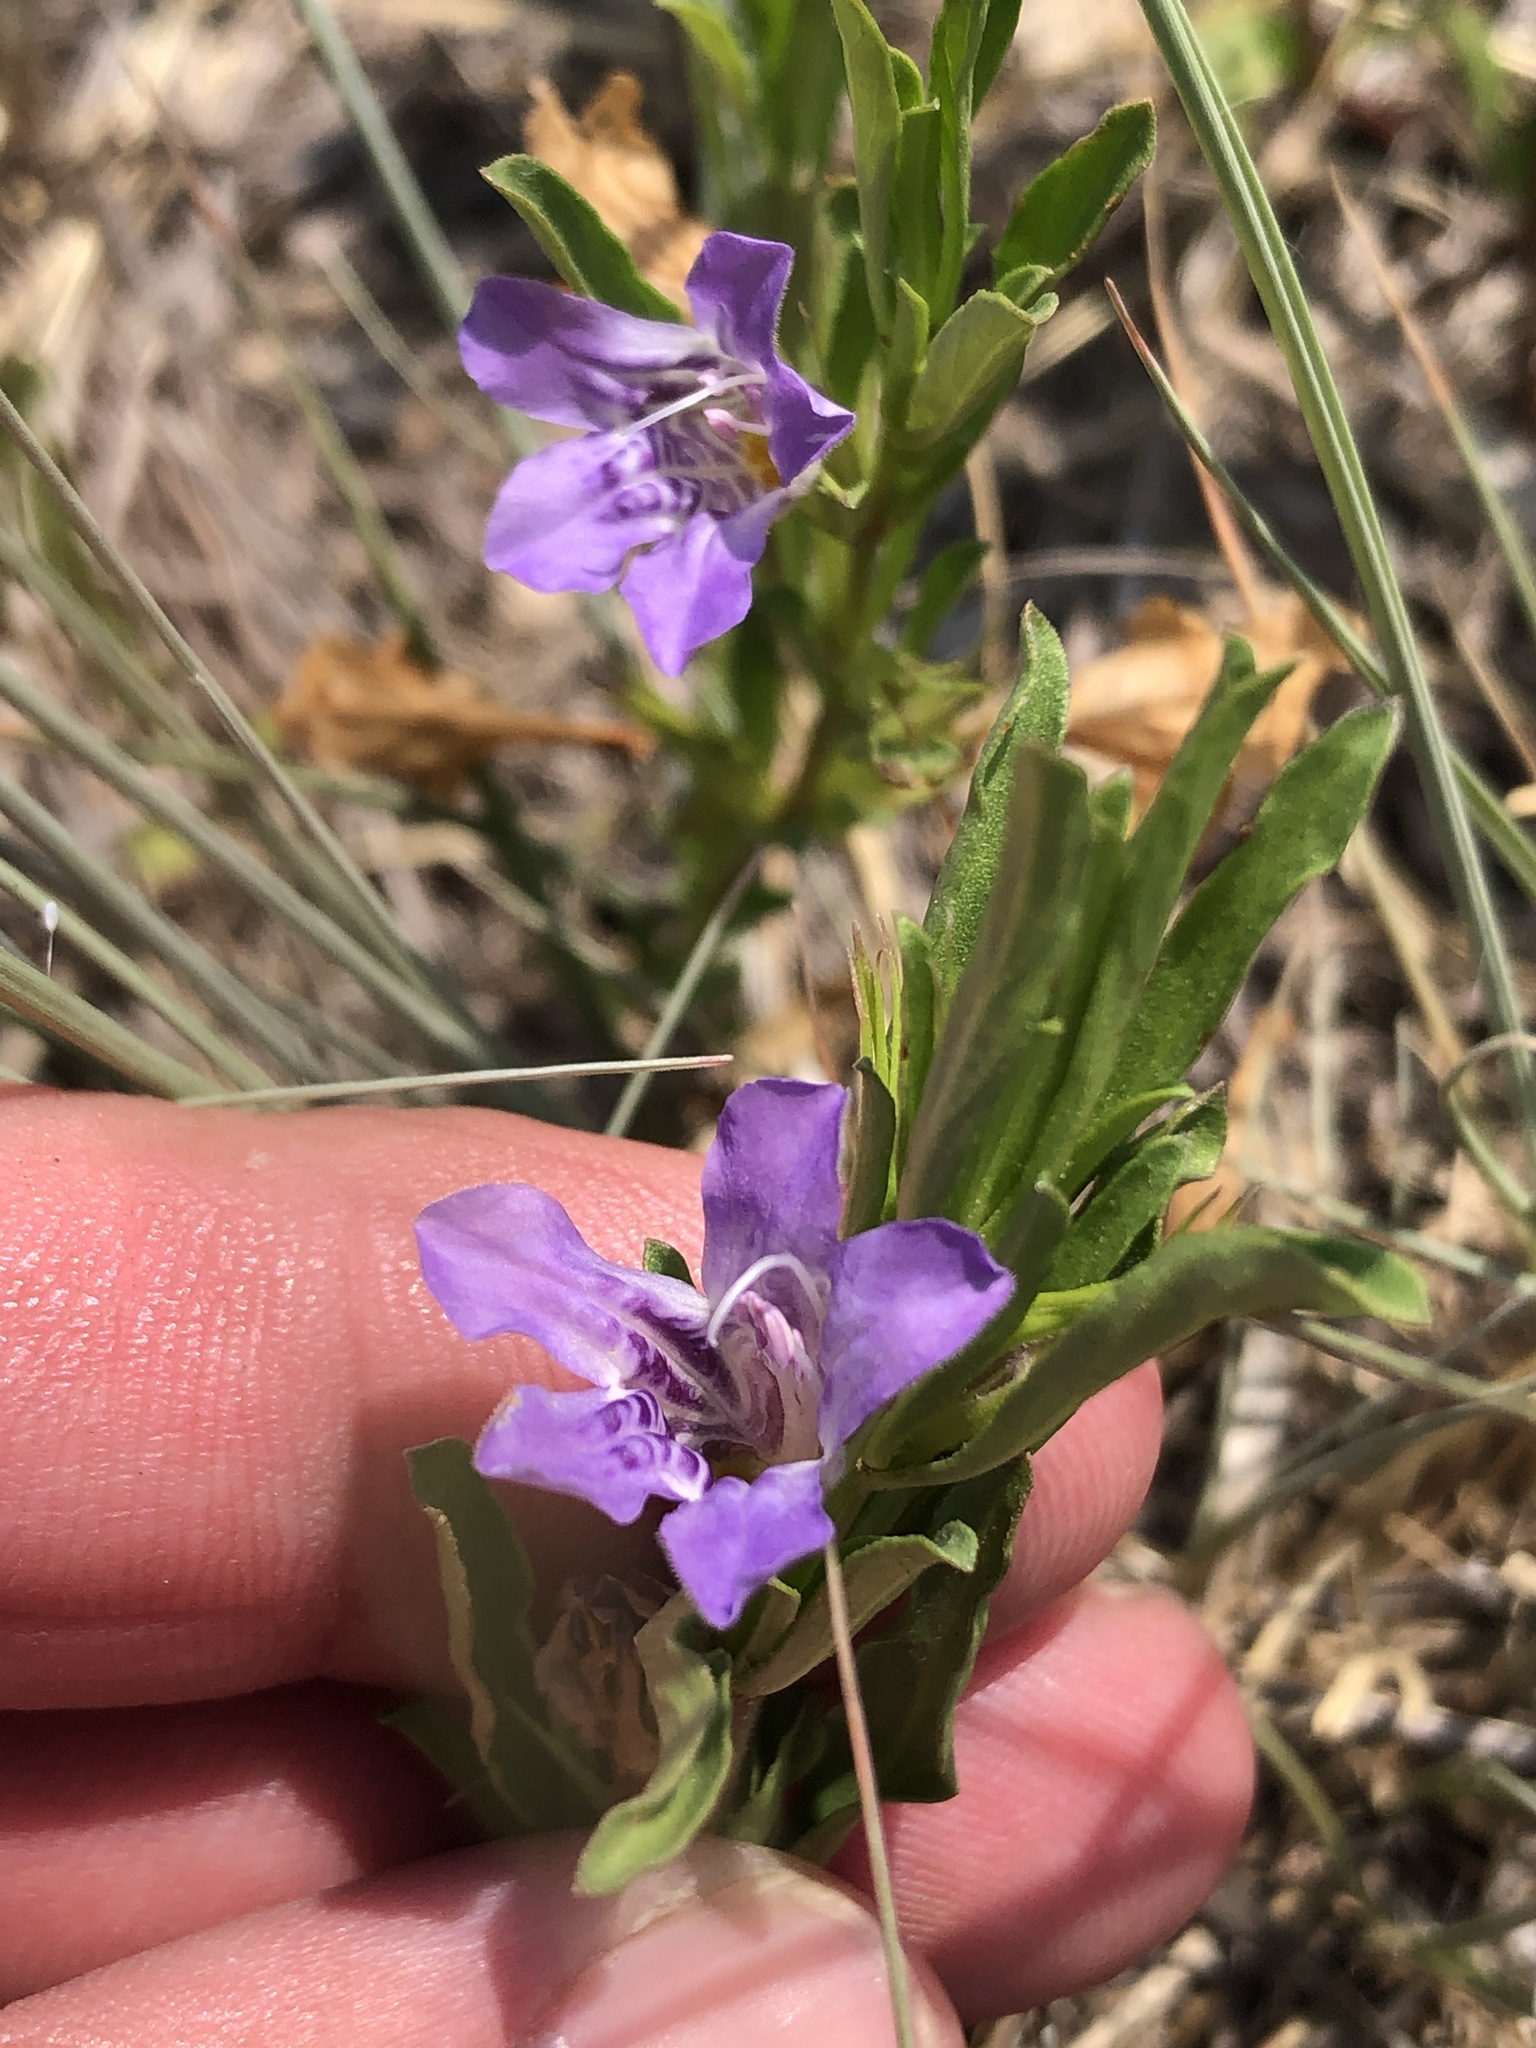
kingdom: Plantae
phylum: Tracheophyta
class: Magnoliopsida
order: Lamiales
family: Acanthaceae
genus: Dyschoriste
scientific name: Dyschoriste linearis
